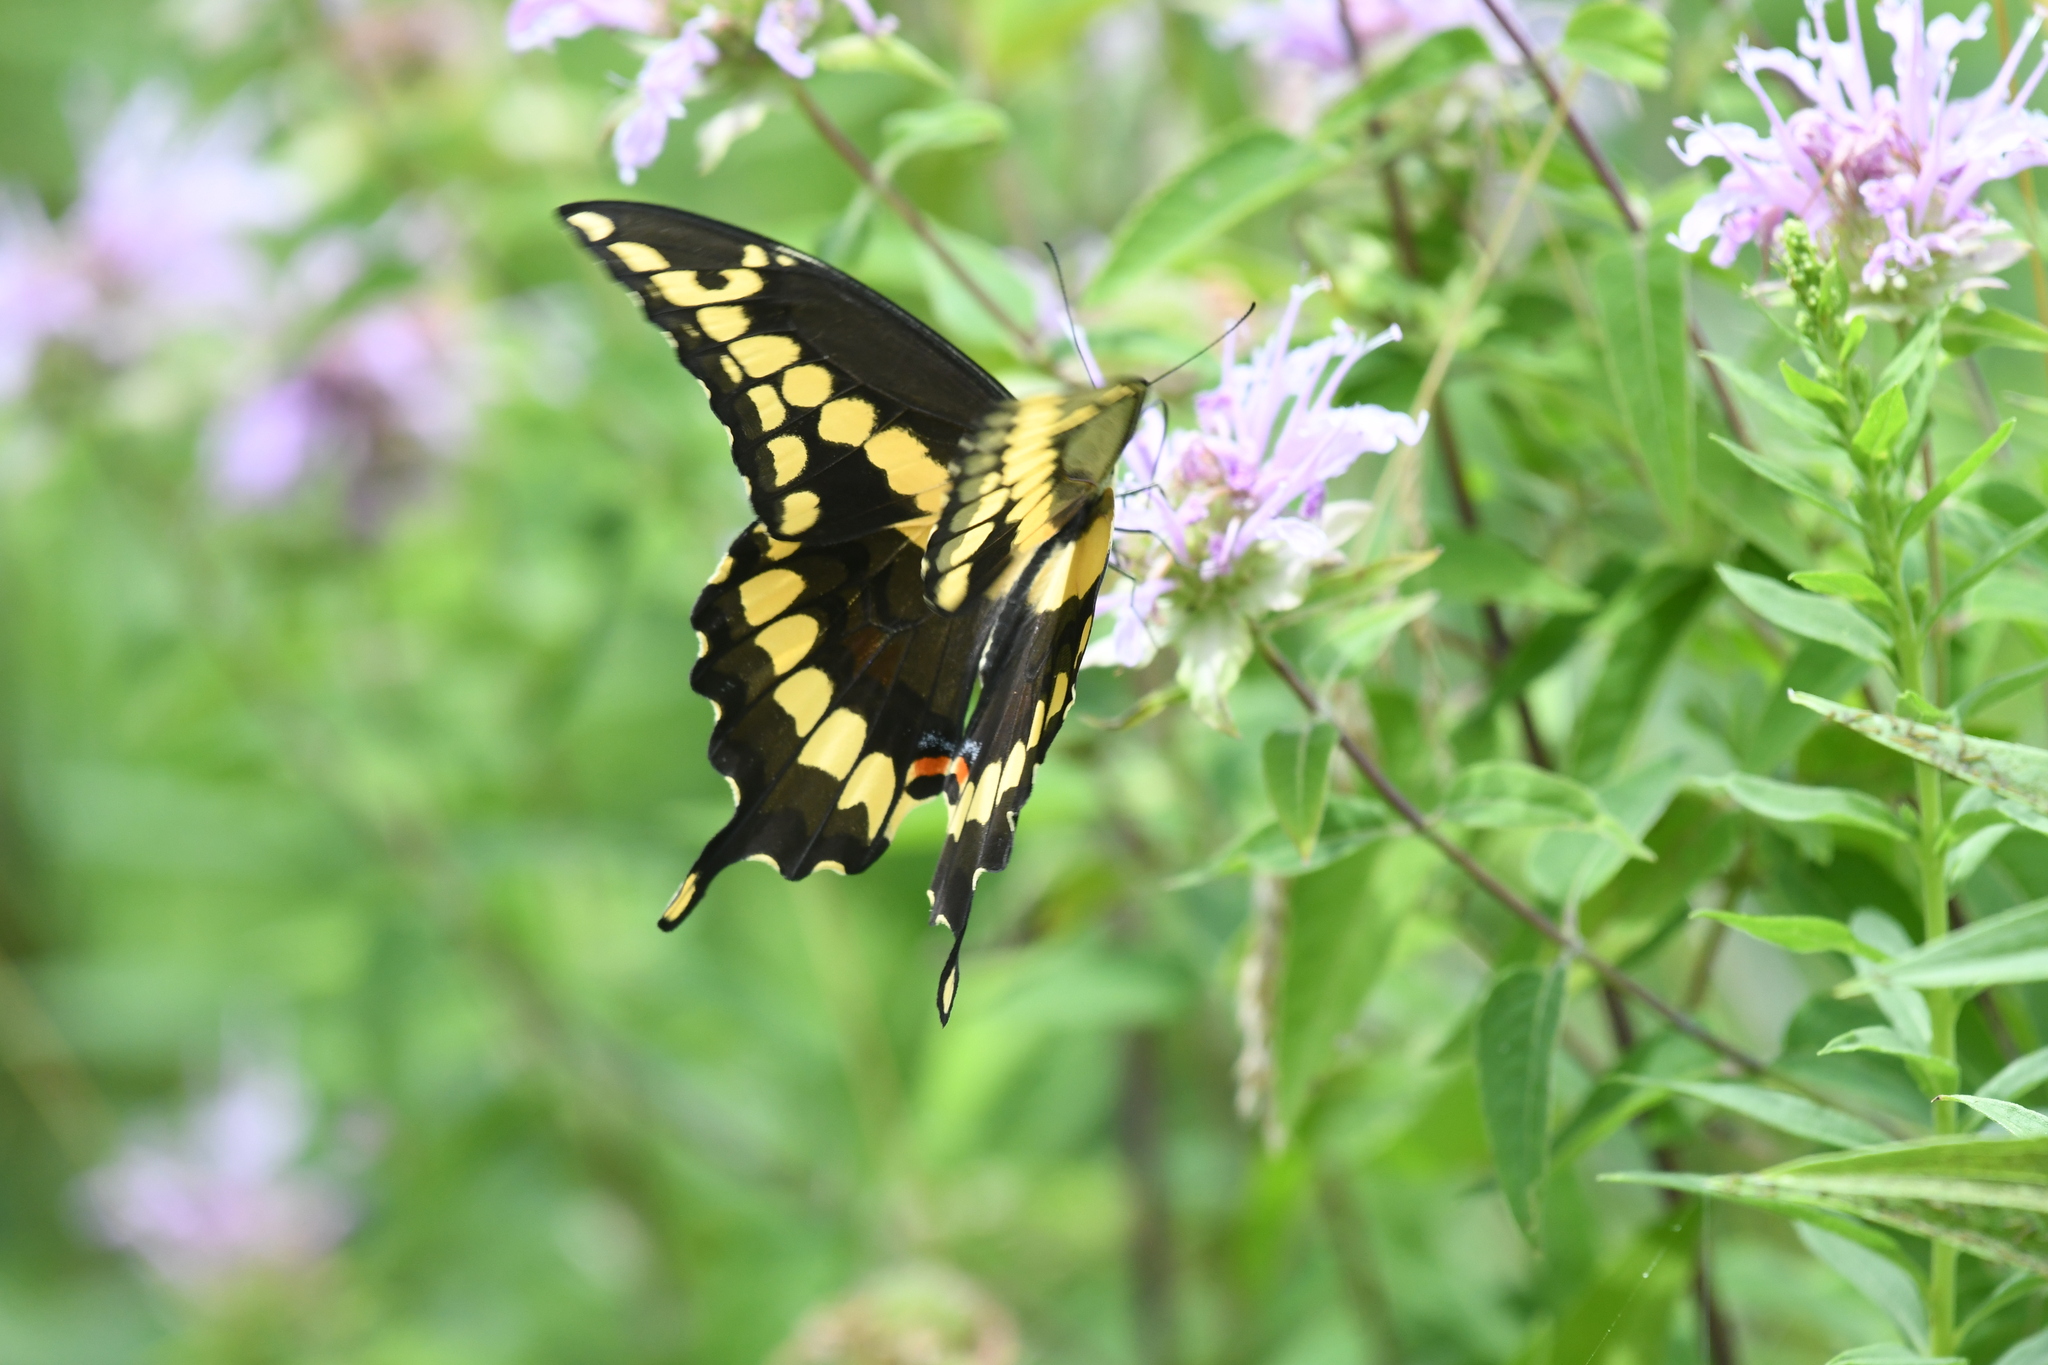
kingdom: Animalia
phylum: Arthropoda
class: Insecta
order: Lepidoptera
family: Papilionidae
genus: Papilio
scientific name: Papilio cresphontes
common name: Giant swallowtail
